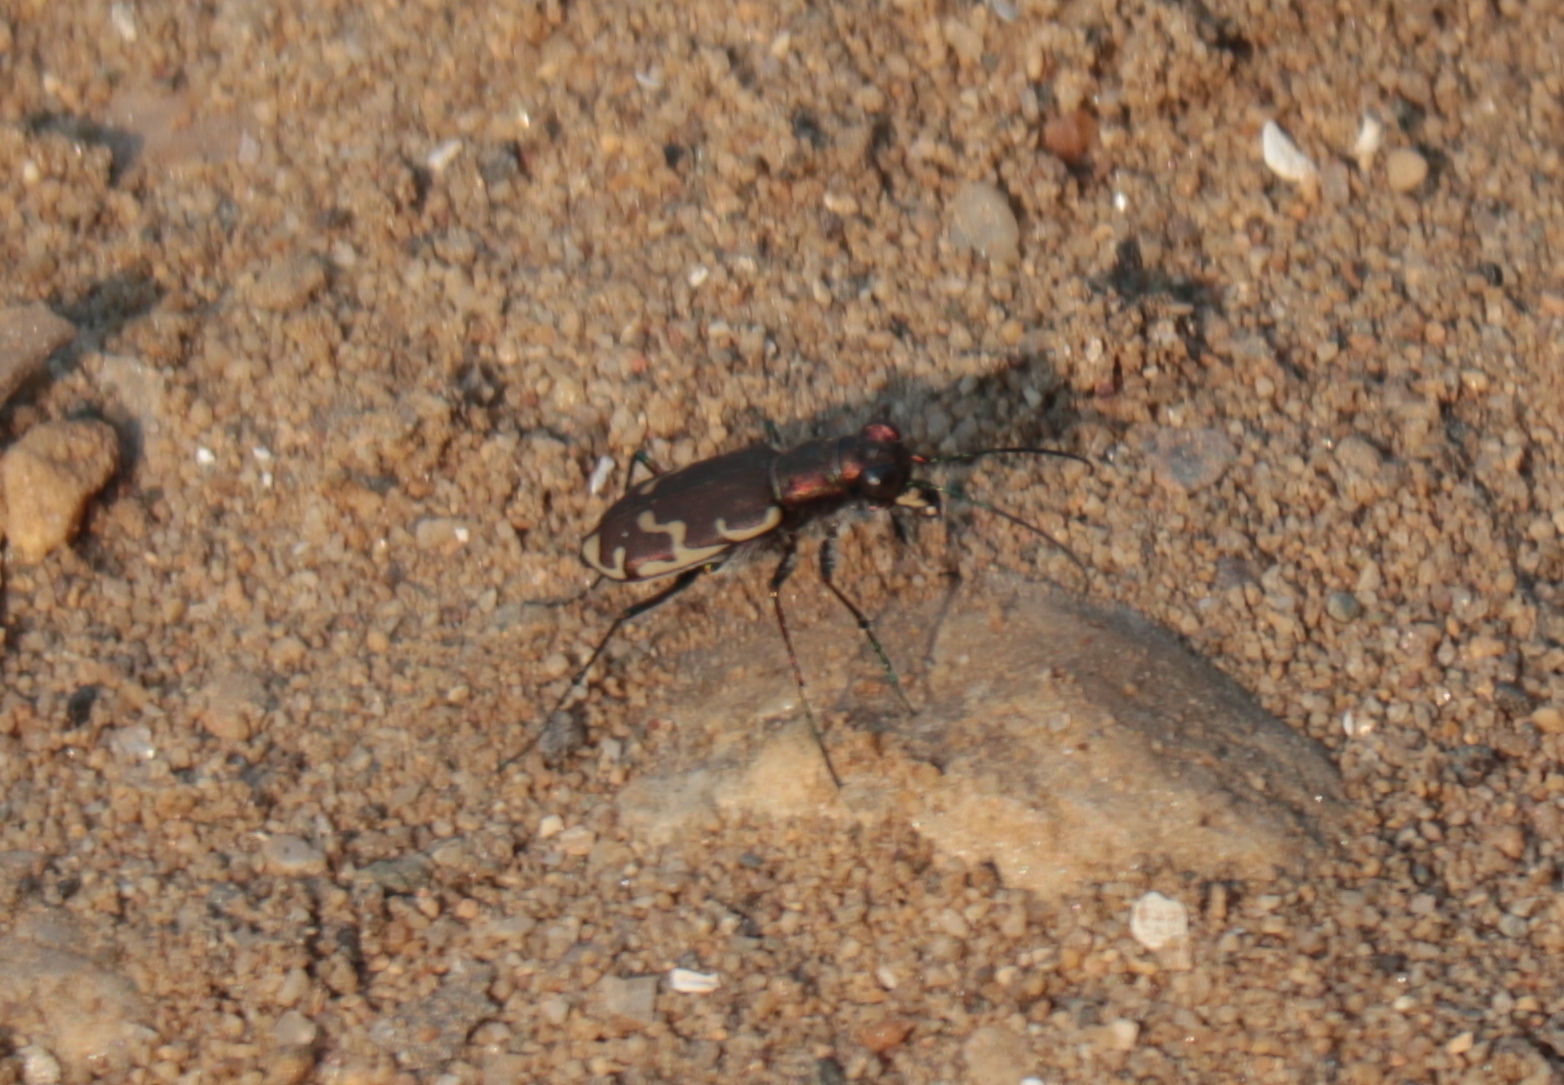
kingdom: Animalia
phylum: Arthropoda
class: Insecta
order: Coleoptera
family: Carabidae
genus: Cicindela
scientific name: Cicindela repanda
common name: Bronzed tiger beetle
